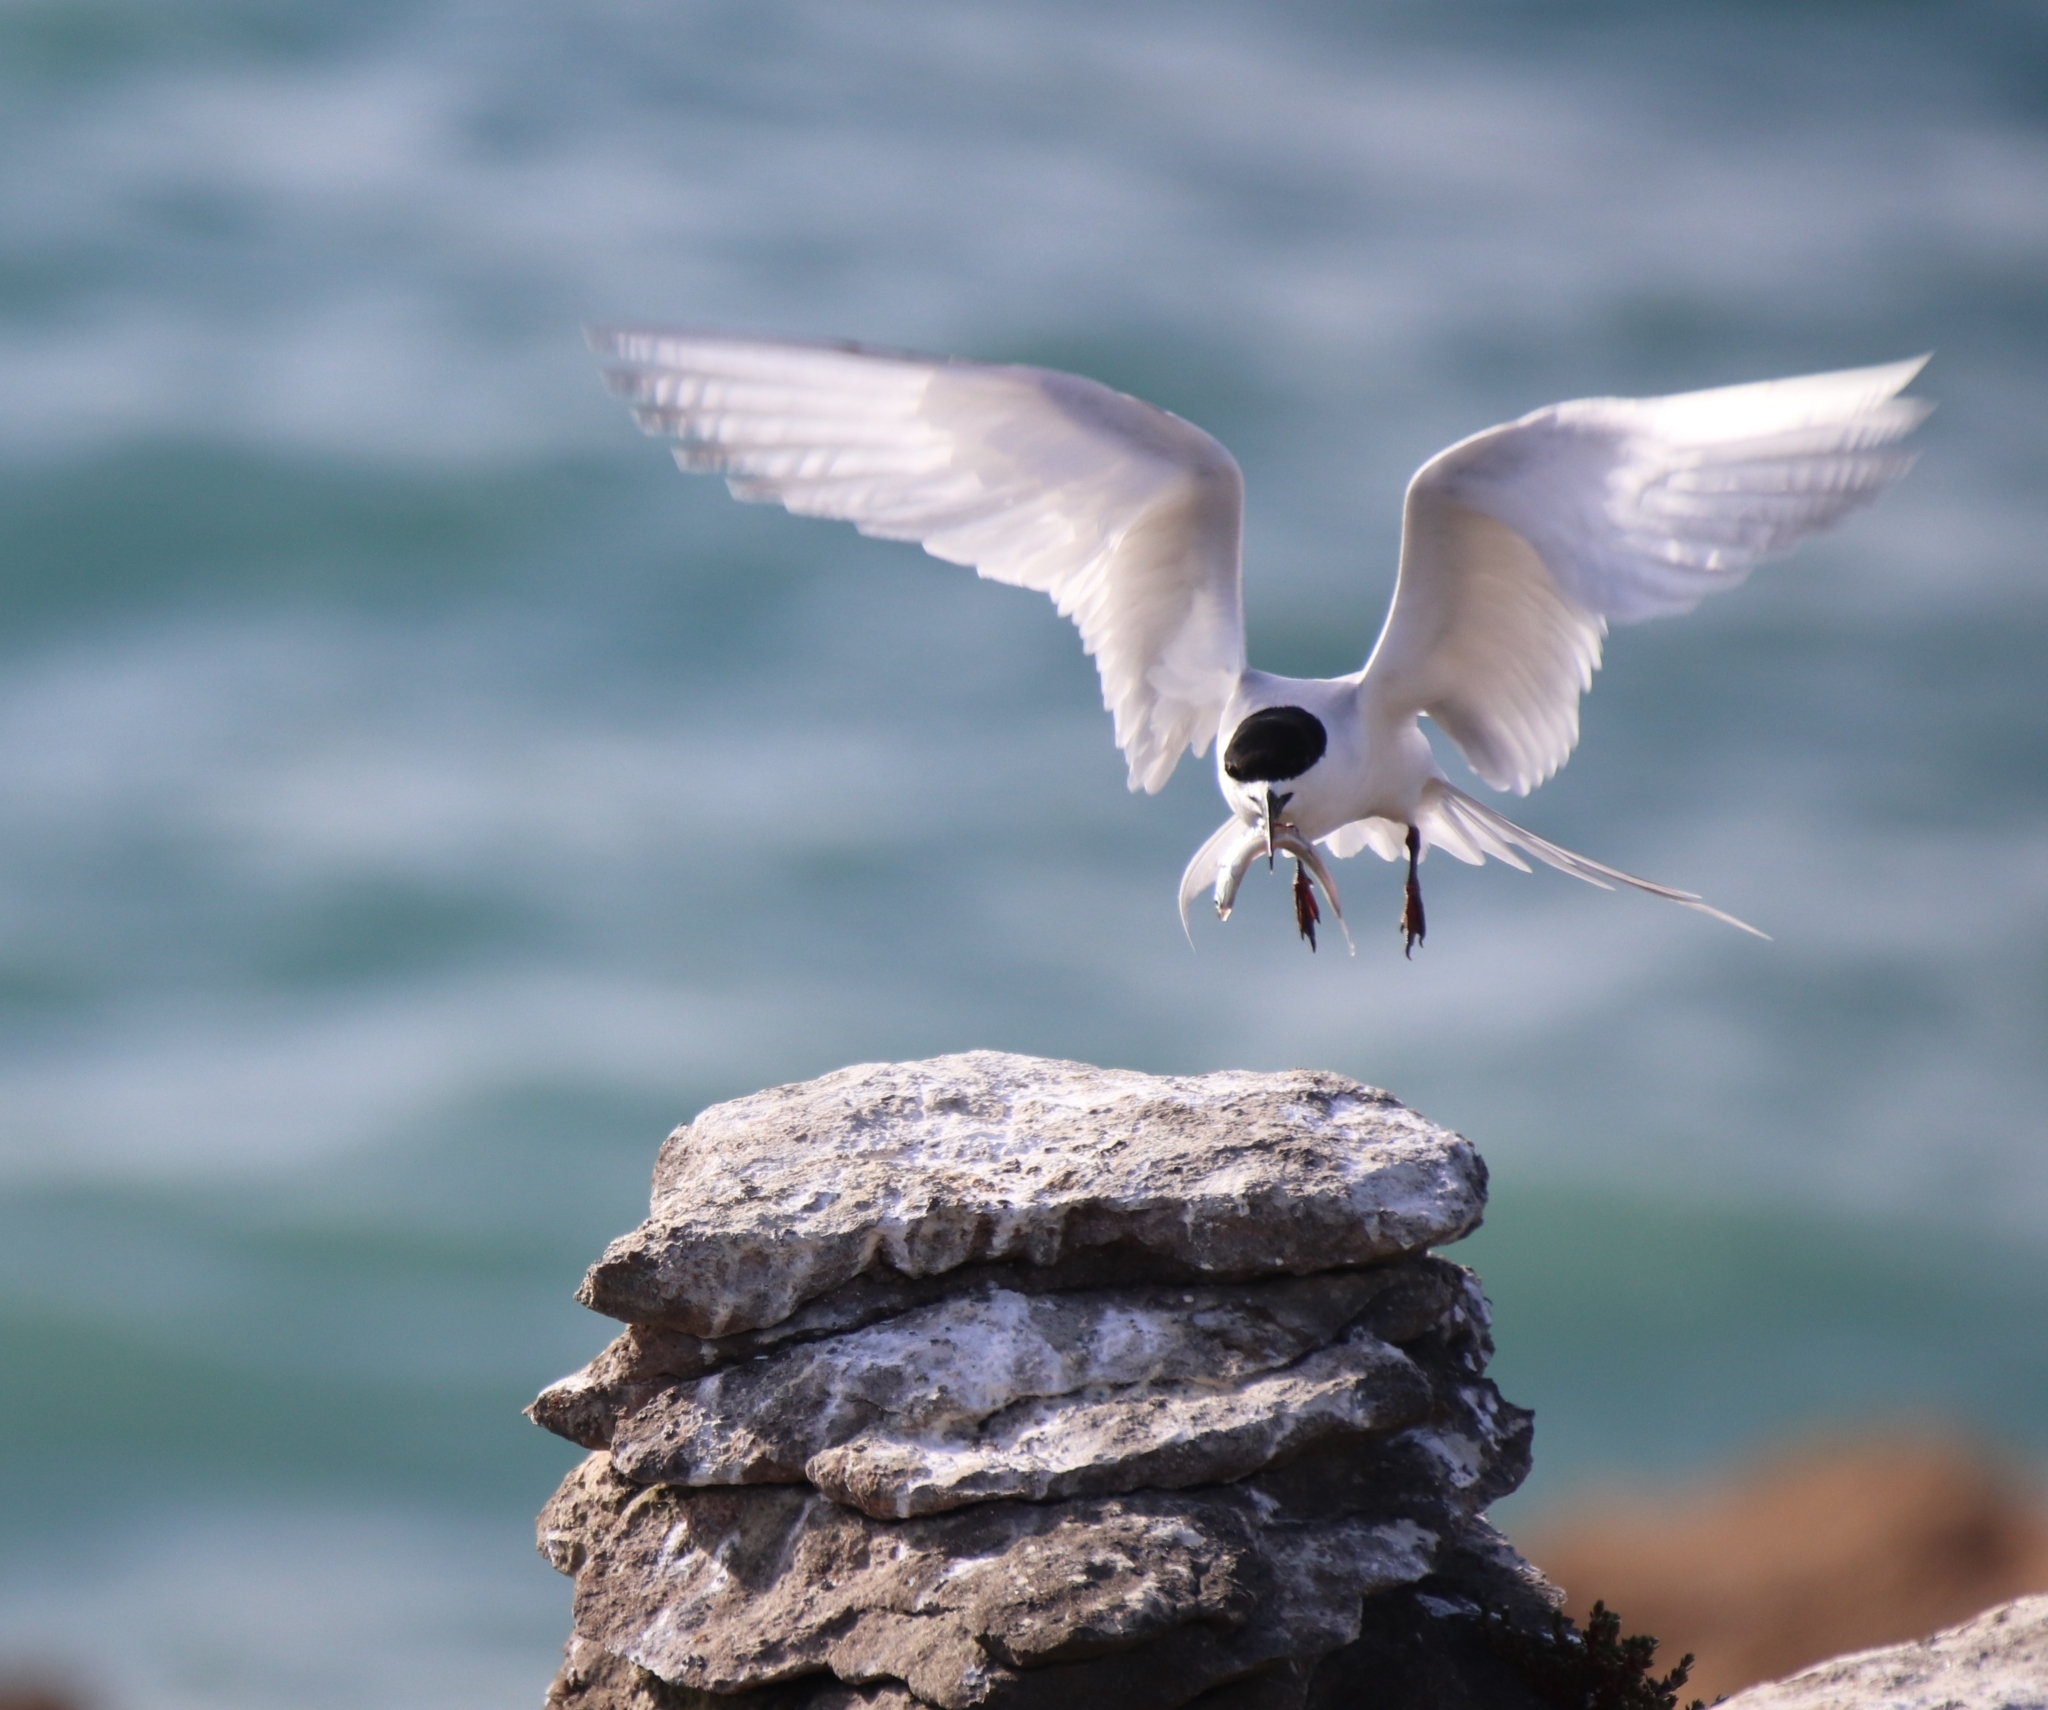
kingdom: Animalia
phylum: Chordata
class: Aves
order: Charadriiformes
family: Laridae
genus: Sterna
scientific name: Sterna striata
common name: White-fronted tern
